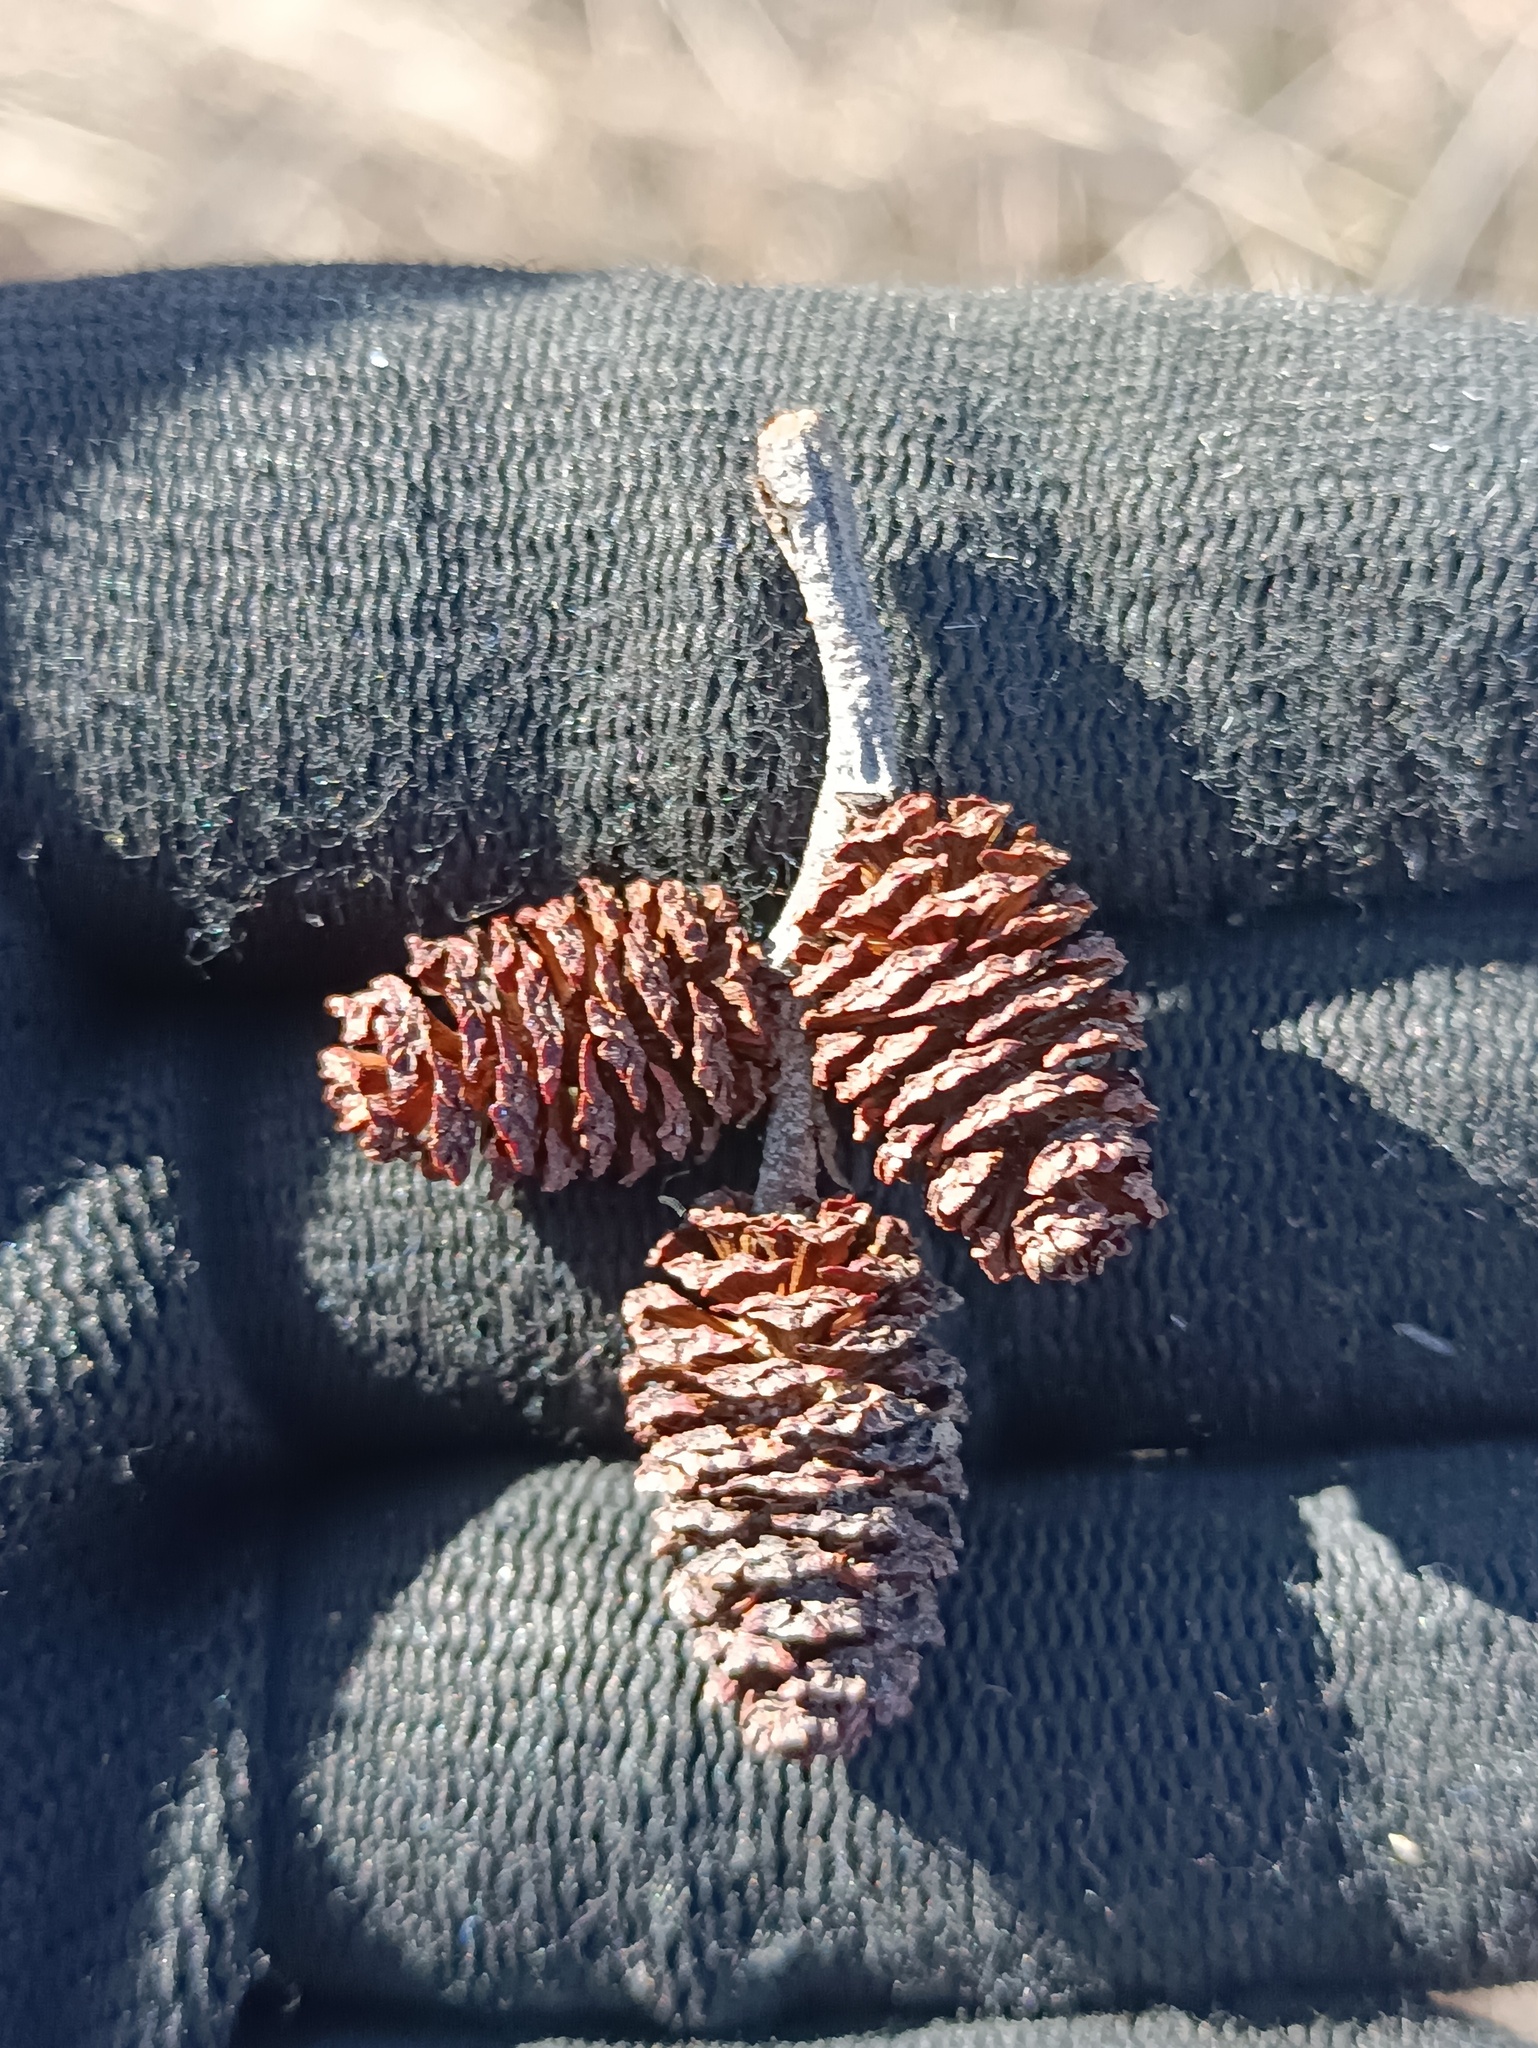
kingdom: Plantae
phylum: Tracheophyta
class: Magnoliopsida
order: Fagales
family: Betulaceae
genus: Alnus
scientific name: Alnus incana
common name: Grey alder
